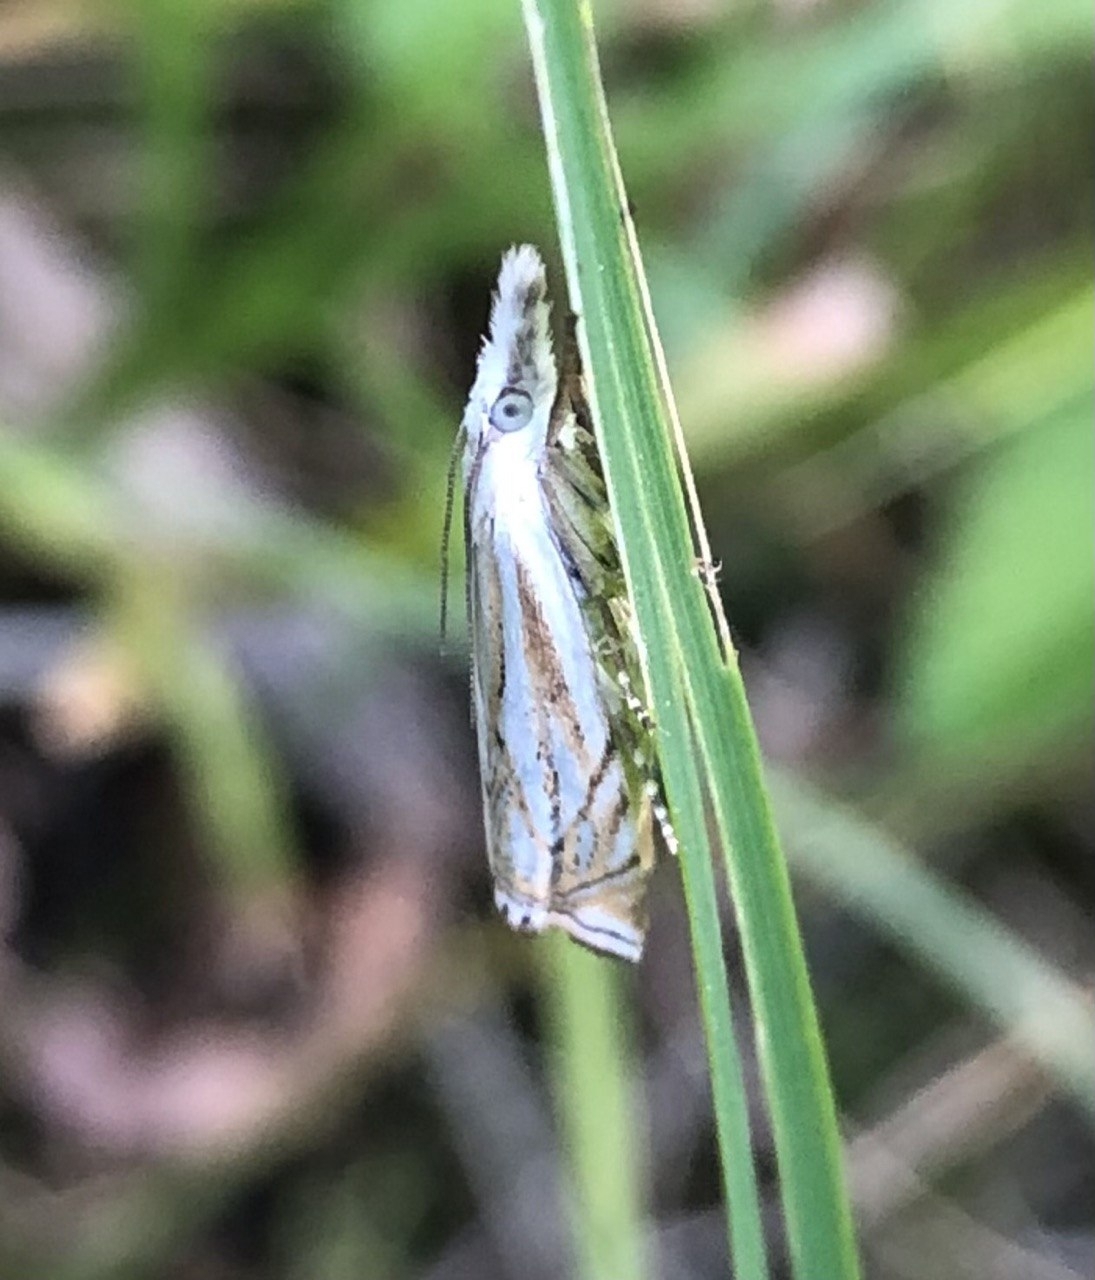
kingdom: Animalia
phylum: Arthropoda
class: Insecta
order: Lepidoptera
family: Crambidae
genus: Crambus
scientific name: Crambus nemorella
